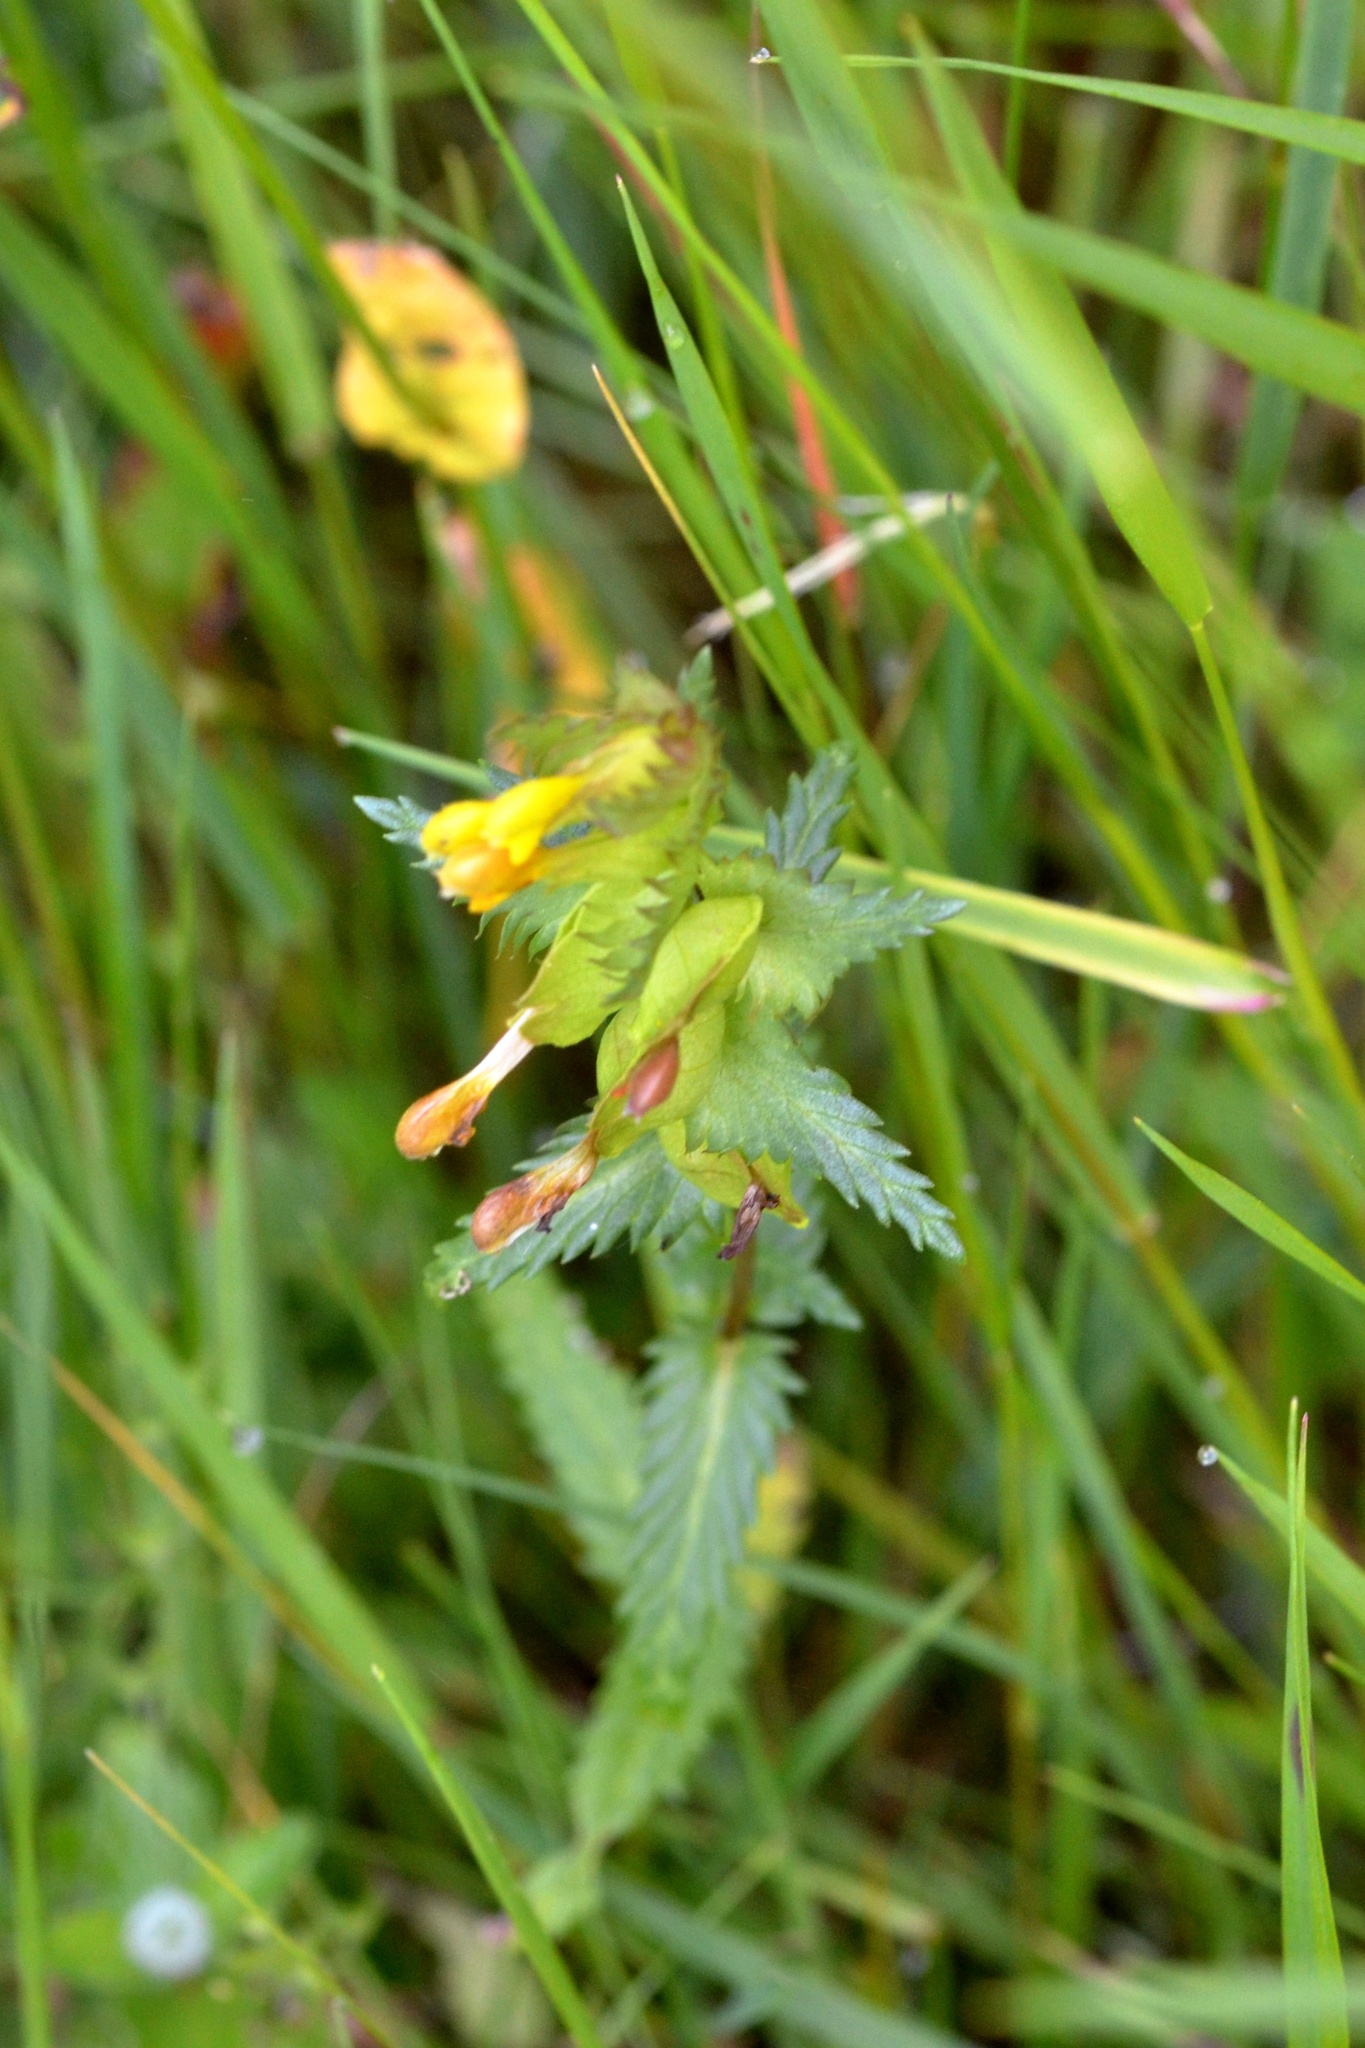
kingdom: Plantae
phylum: Tracheophyta
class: Magnoliopsida
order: Lamiales
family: Orobanchaceae
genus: Rhinanthus
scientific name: Rhinanthus minor
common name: Yellow-rattle
